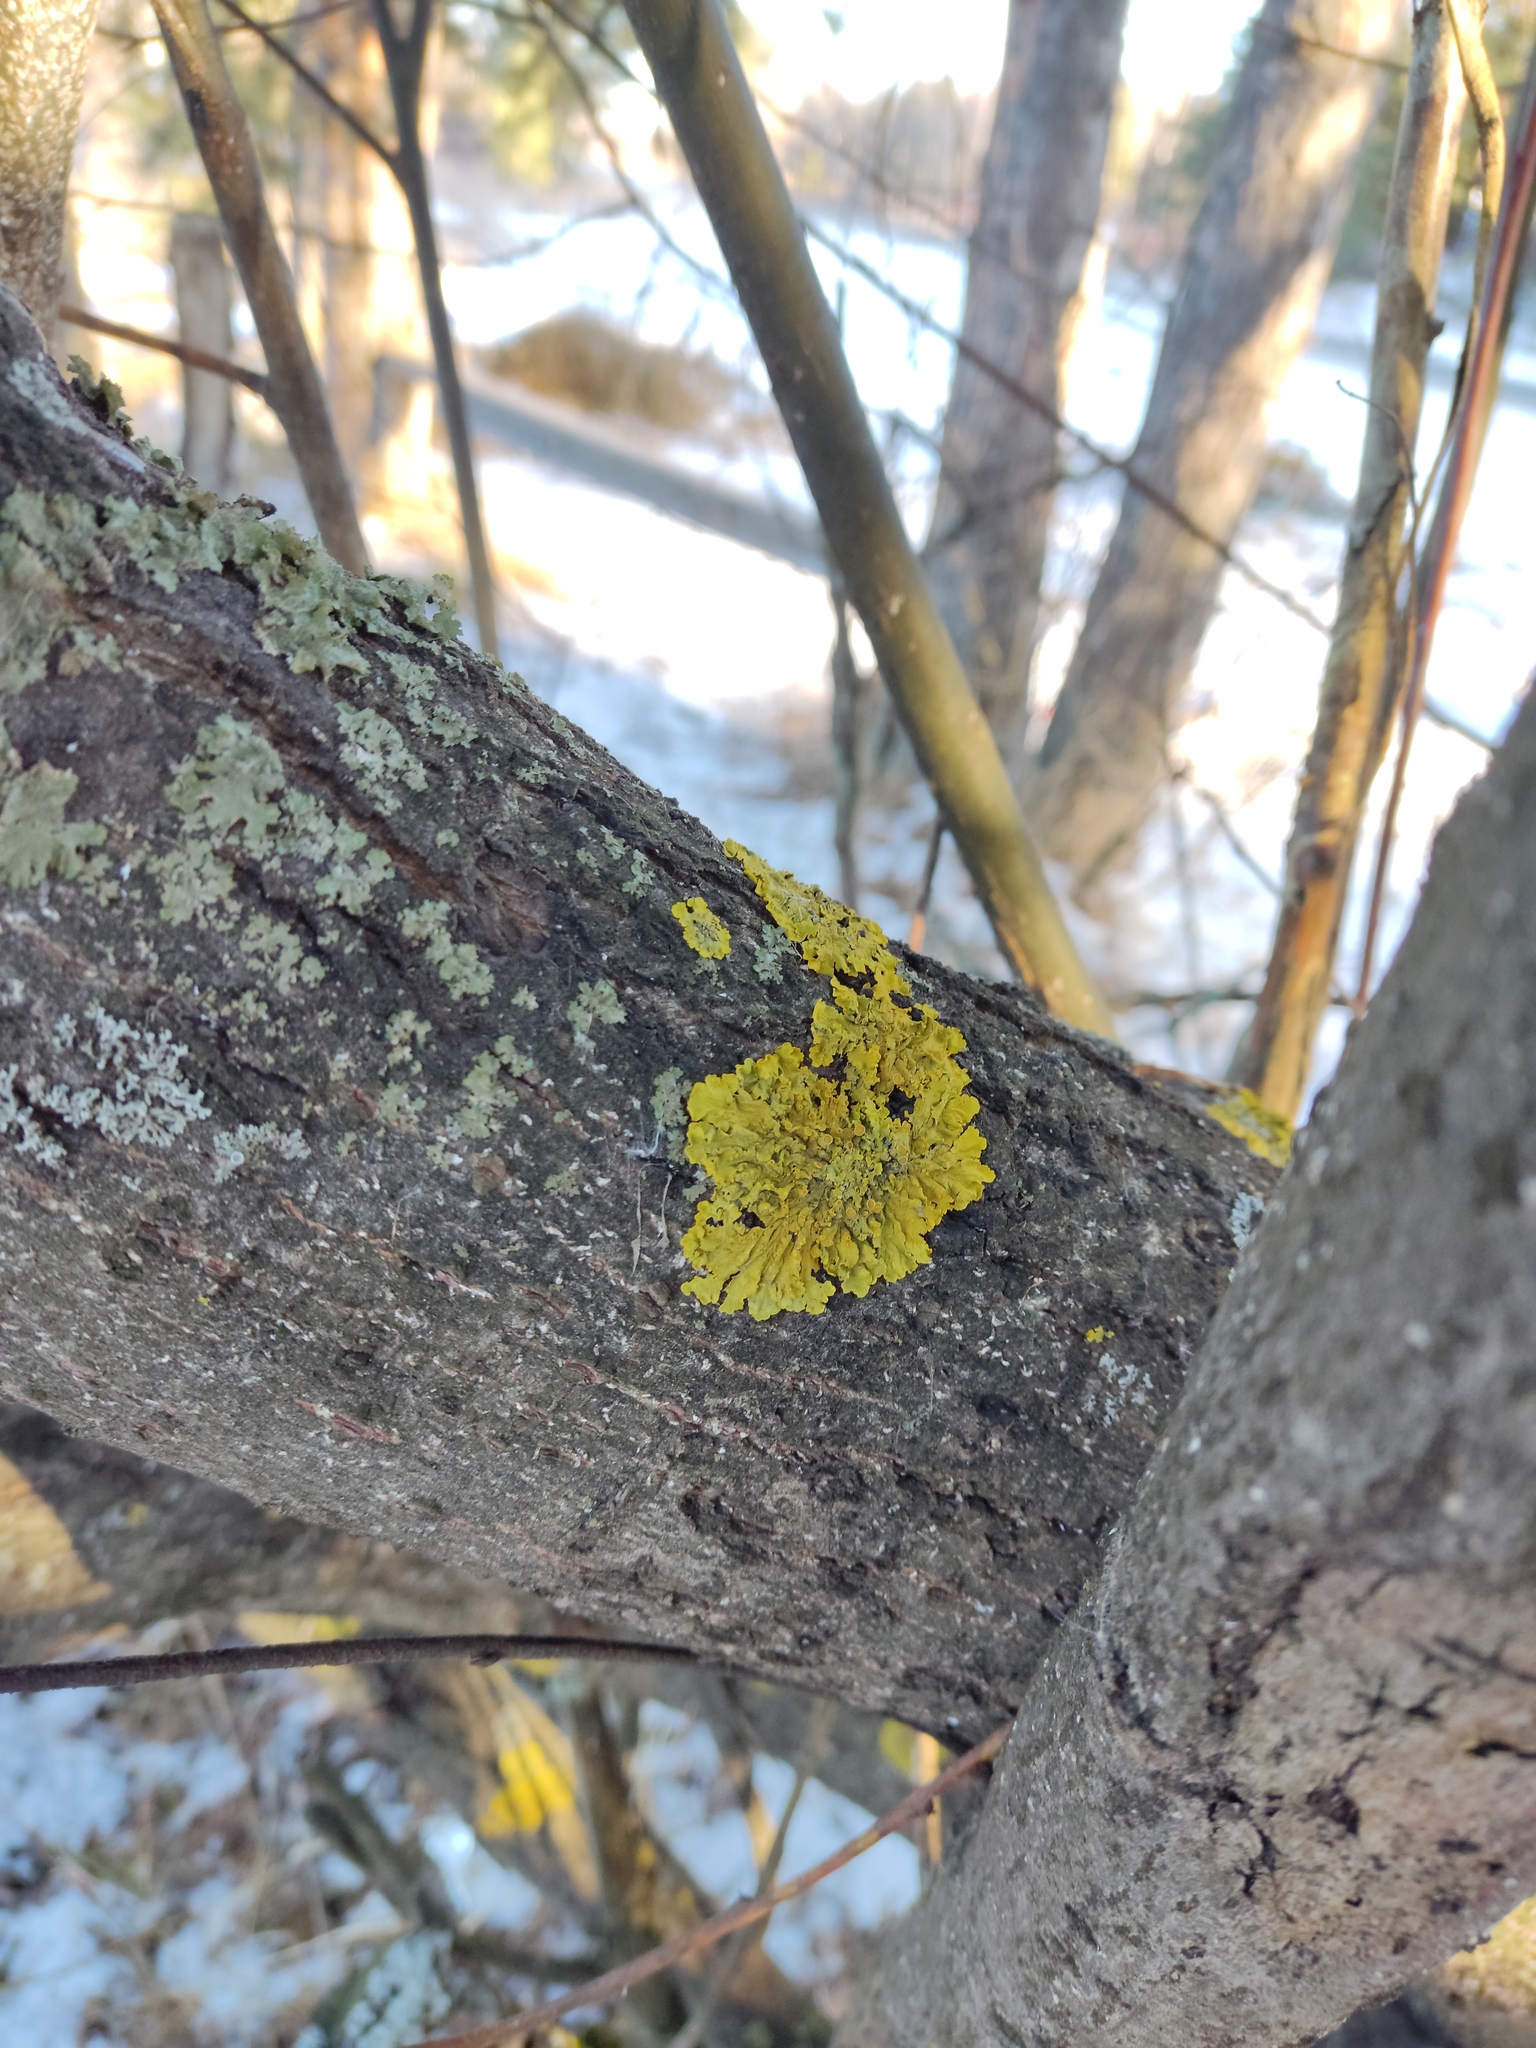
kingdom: Fungi
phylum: Ascomycota
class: Lecanoromycetes
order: Teloschistales
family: Teloschistaceae
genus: Xanthoria
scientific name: Xanthoria parietina
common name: Common orange lichen
